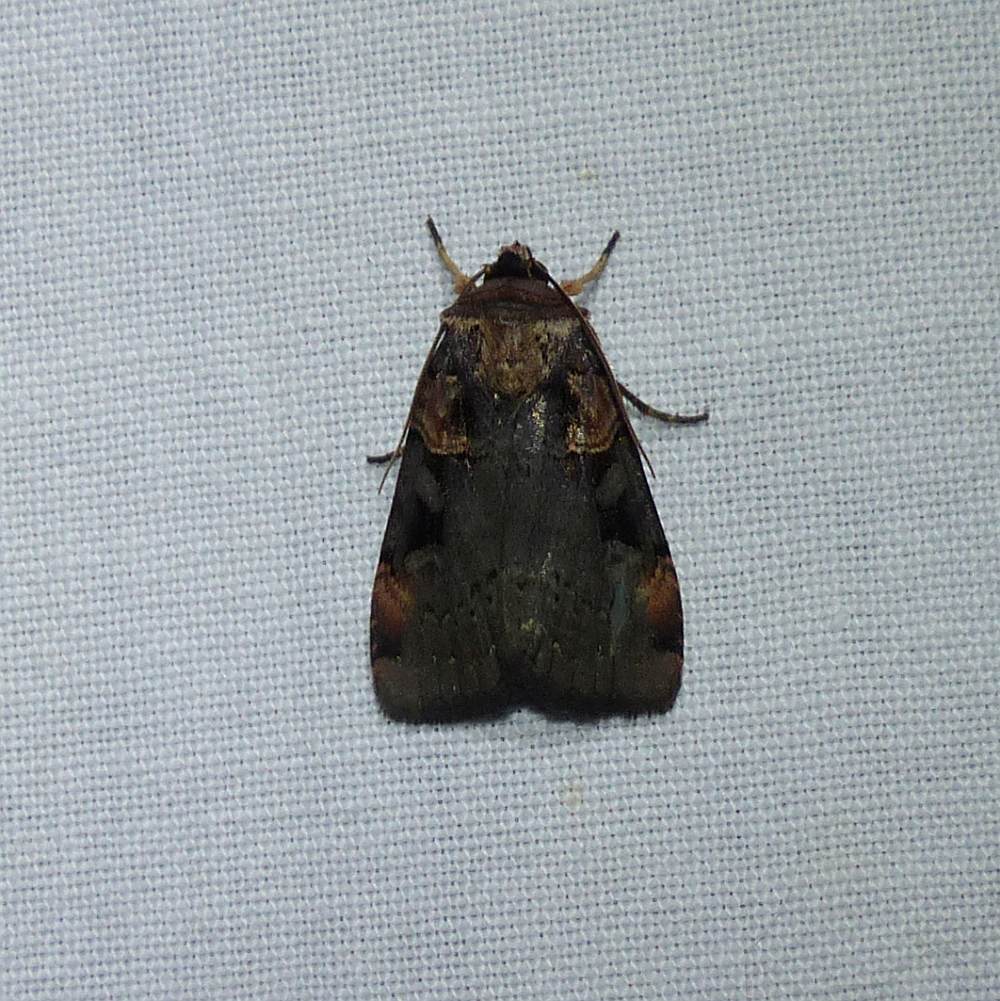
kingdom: Animalia
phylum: Arthropoda
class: Insecta
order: Lepidoptera
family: Noctuidae
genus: Pseudohermonassa
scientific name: Pseudohermonassa bicarnea
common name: Pink spotted dart
